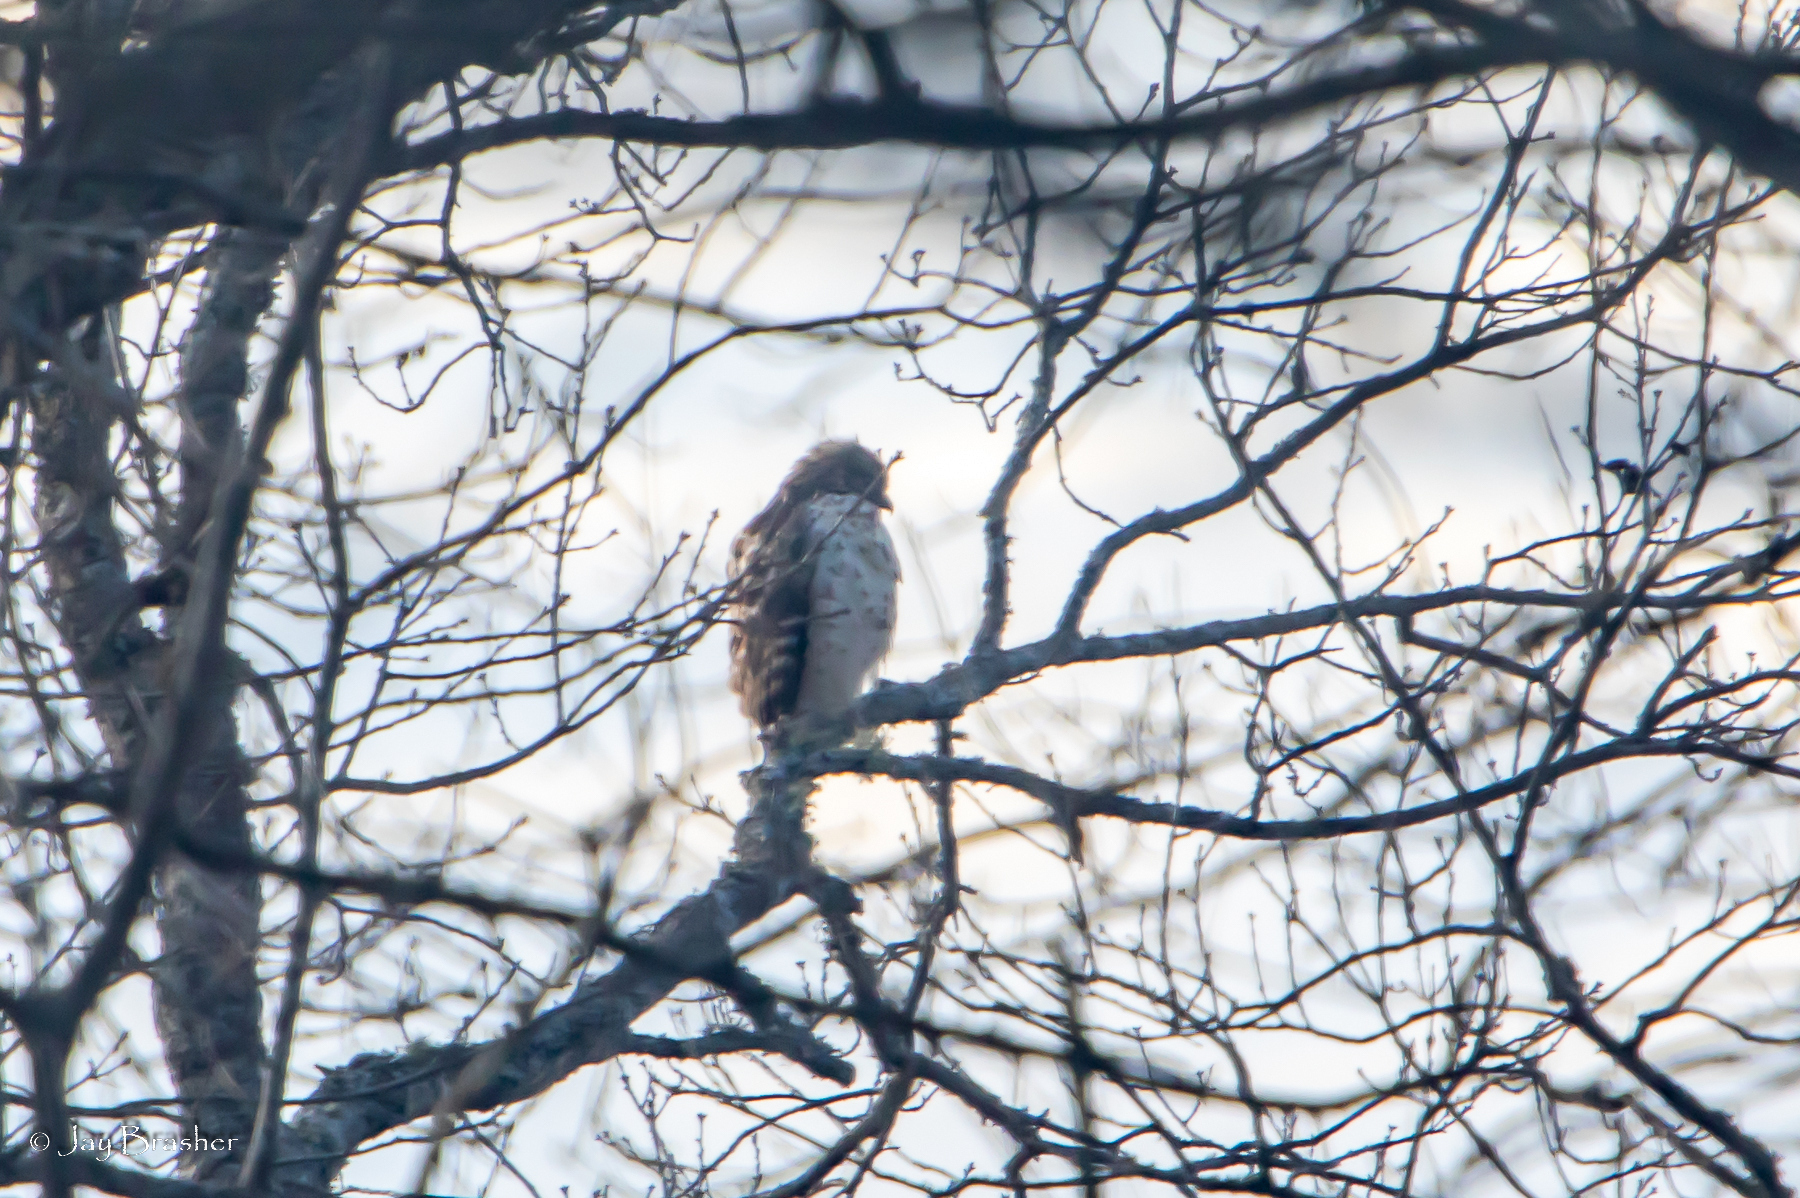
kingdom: Animalia
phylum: Chordata
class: Aves
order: Accipitriformes
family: Accipitridae
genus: Buteo
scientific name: Buteo lineatus
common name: Red-shouldered hawk
